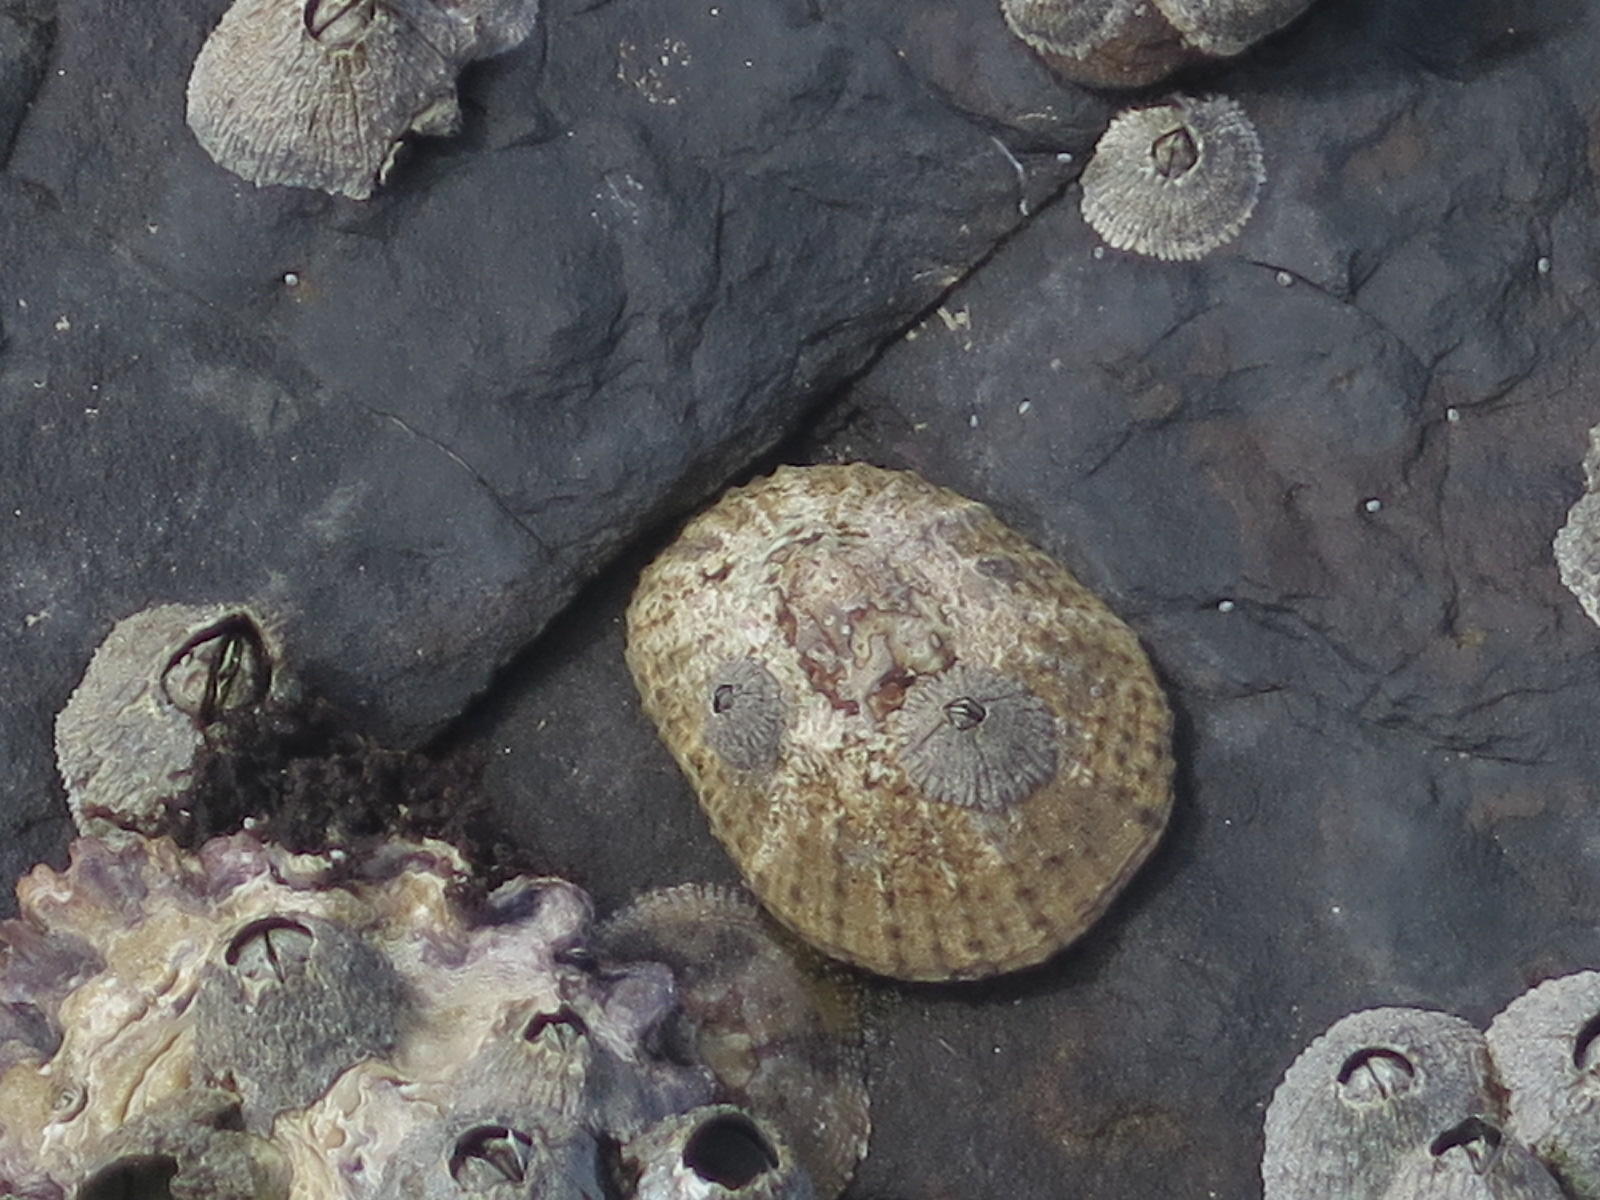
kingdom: Animalia
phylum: Mollusca
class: Gastropoda
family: Patellidae
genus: Scutellastra
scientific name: Scutellastra natalensis
